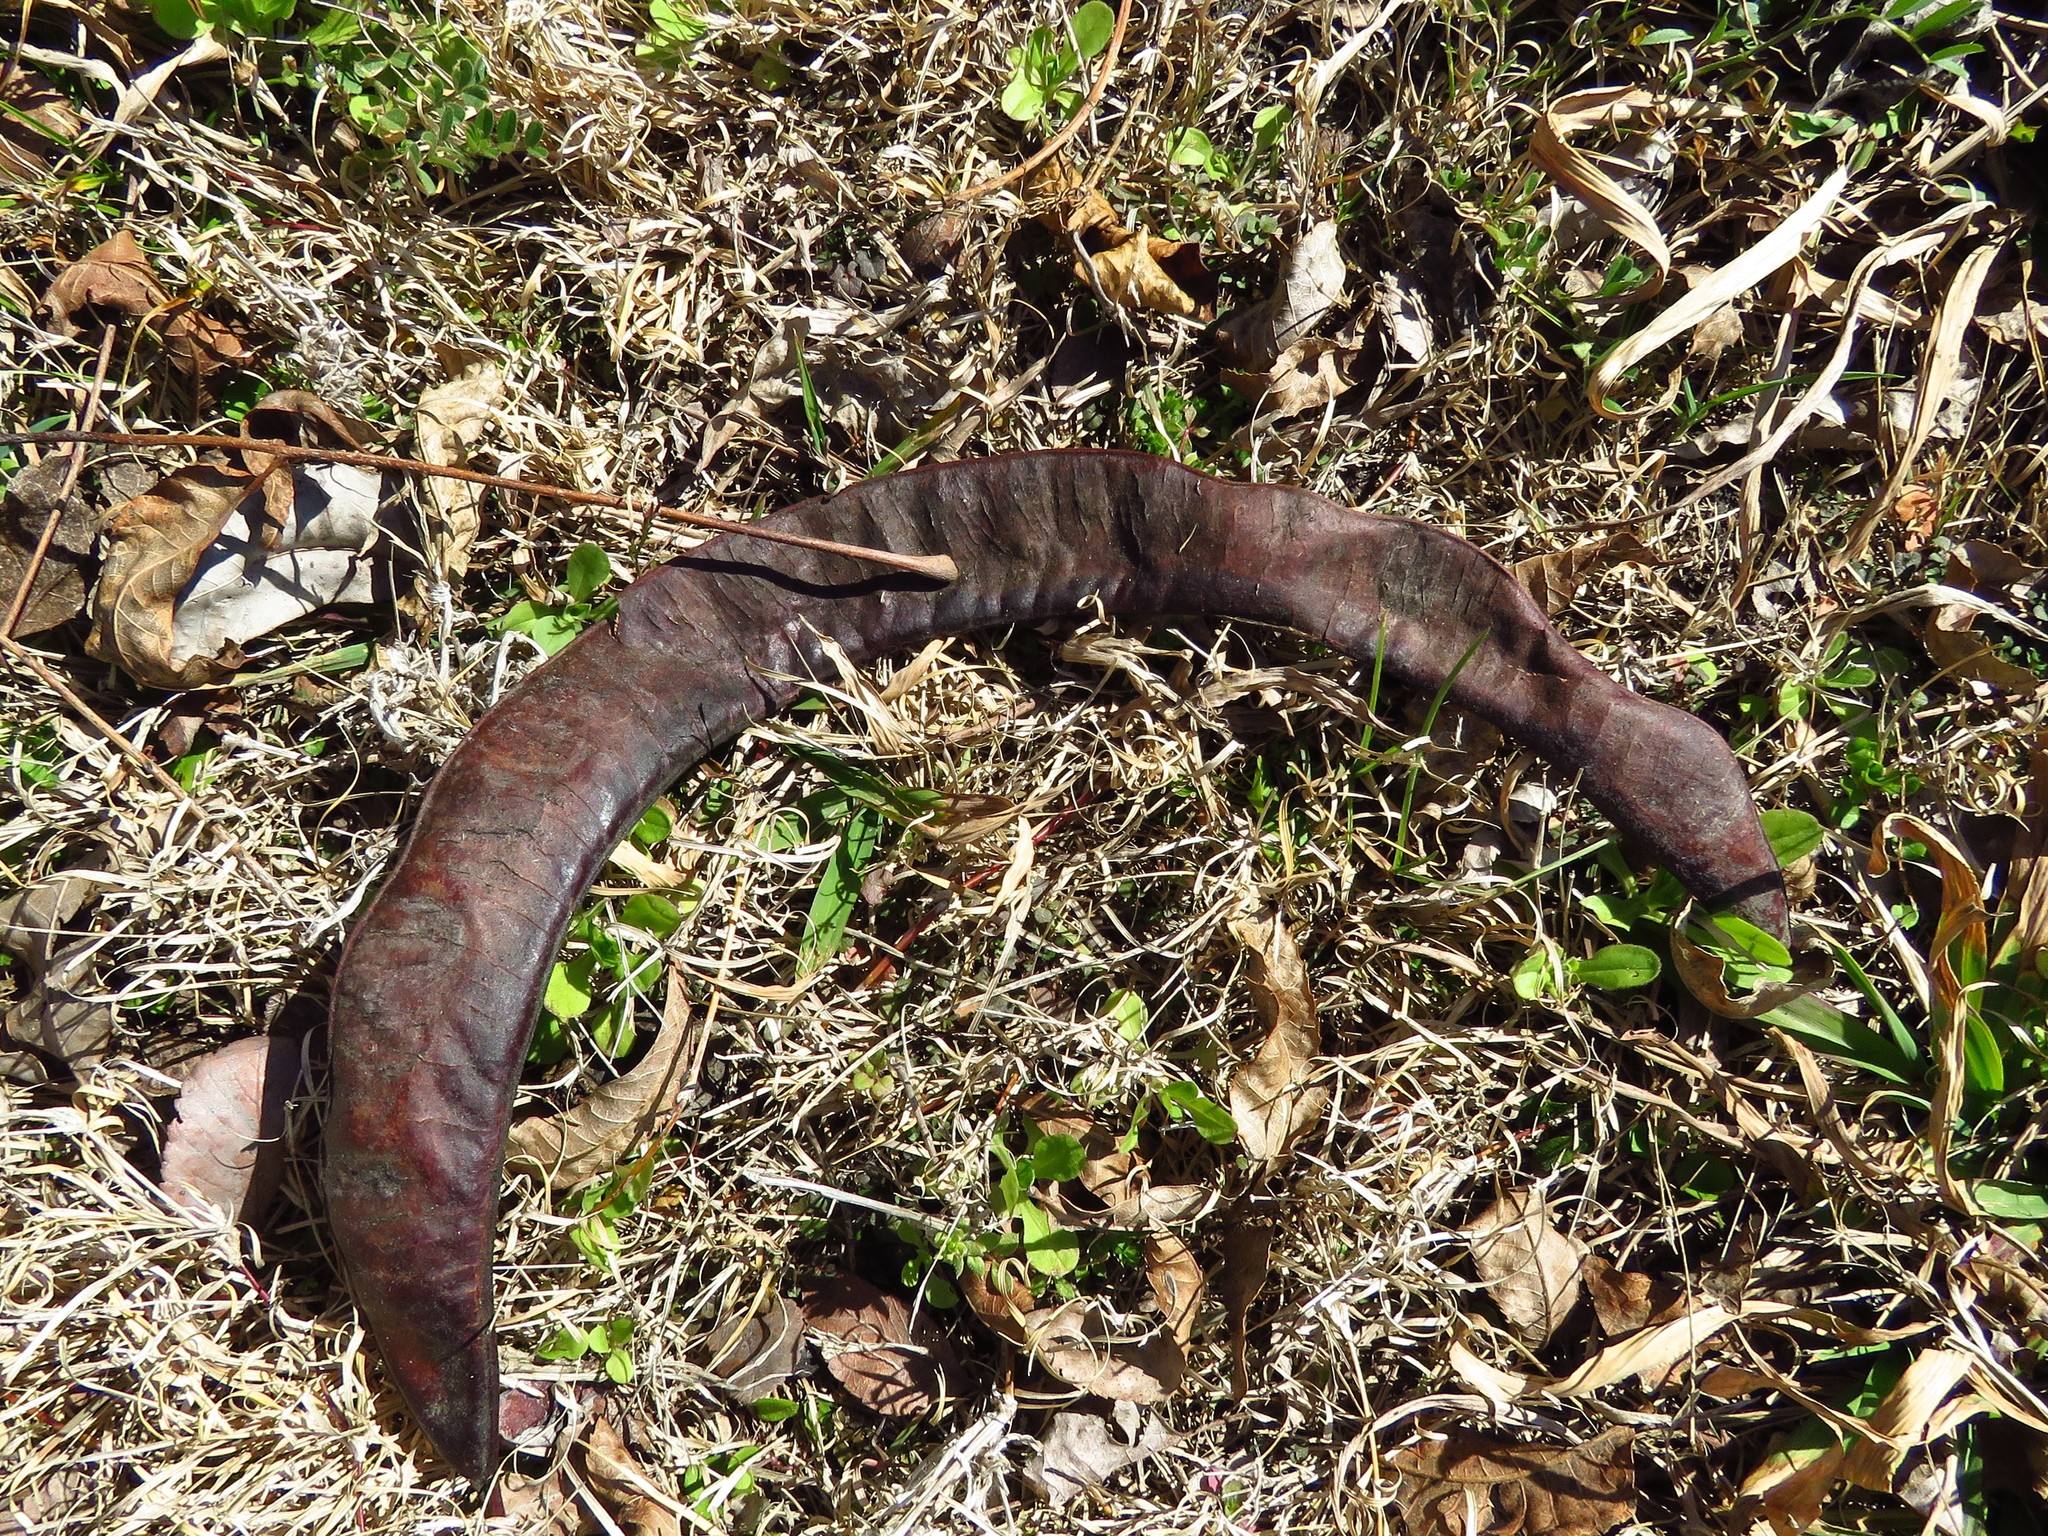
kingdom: Plantae
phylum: Tracheophyta
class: Magnoliopsida
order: Fabales
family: Fabaceae
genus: Gleditsia
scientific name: Gleditsia triacanthos
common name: Common honeylocust
